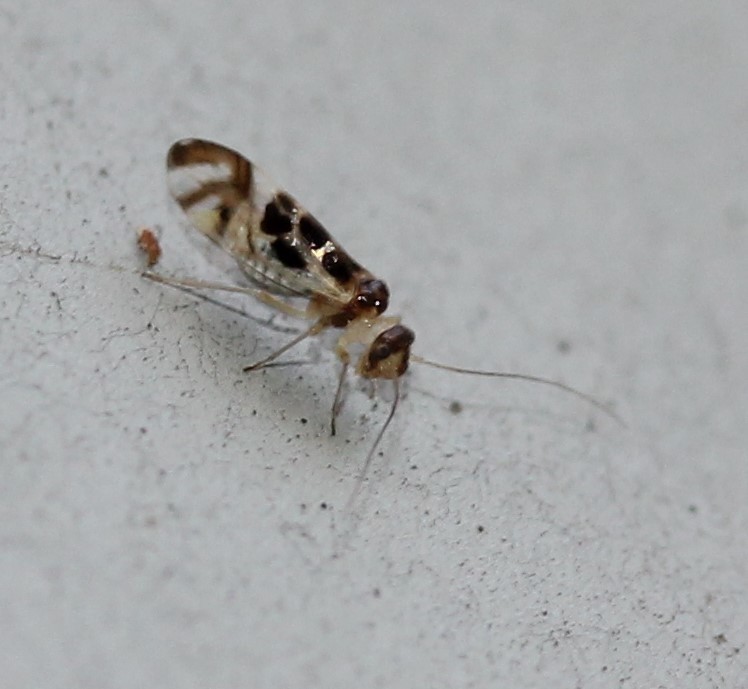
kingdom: Animalia
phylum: Arthropoda
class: Insecta
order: Psocodea
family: Stenopsocidae
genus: Graphopsocus
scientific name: Graphopsocus cruciatus
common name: Lizard bark louse
